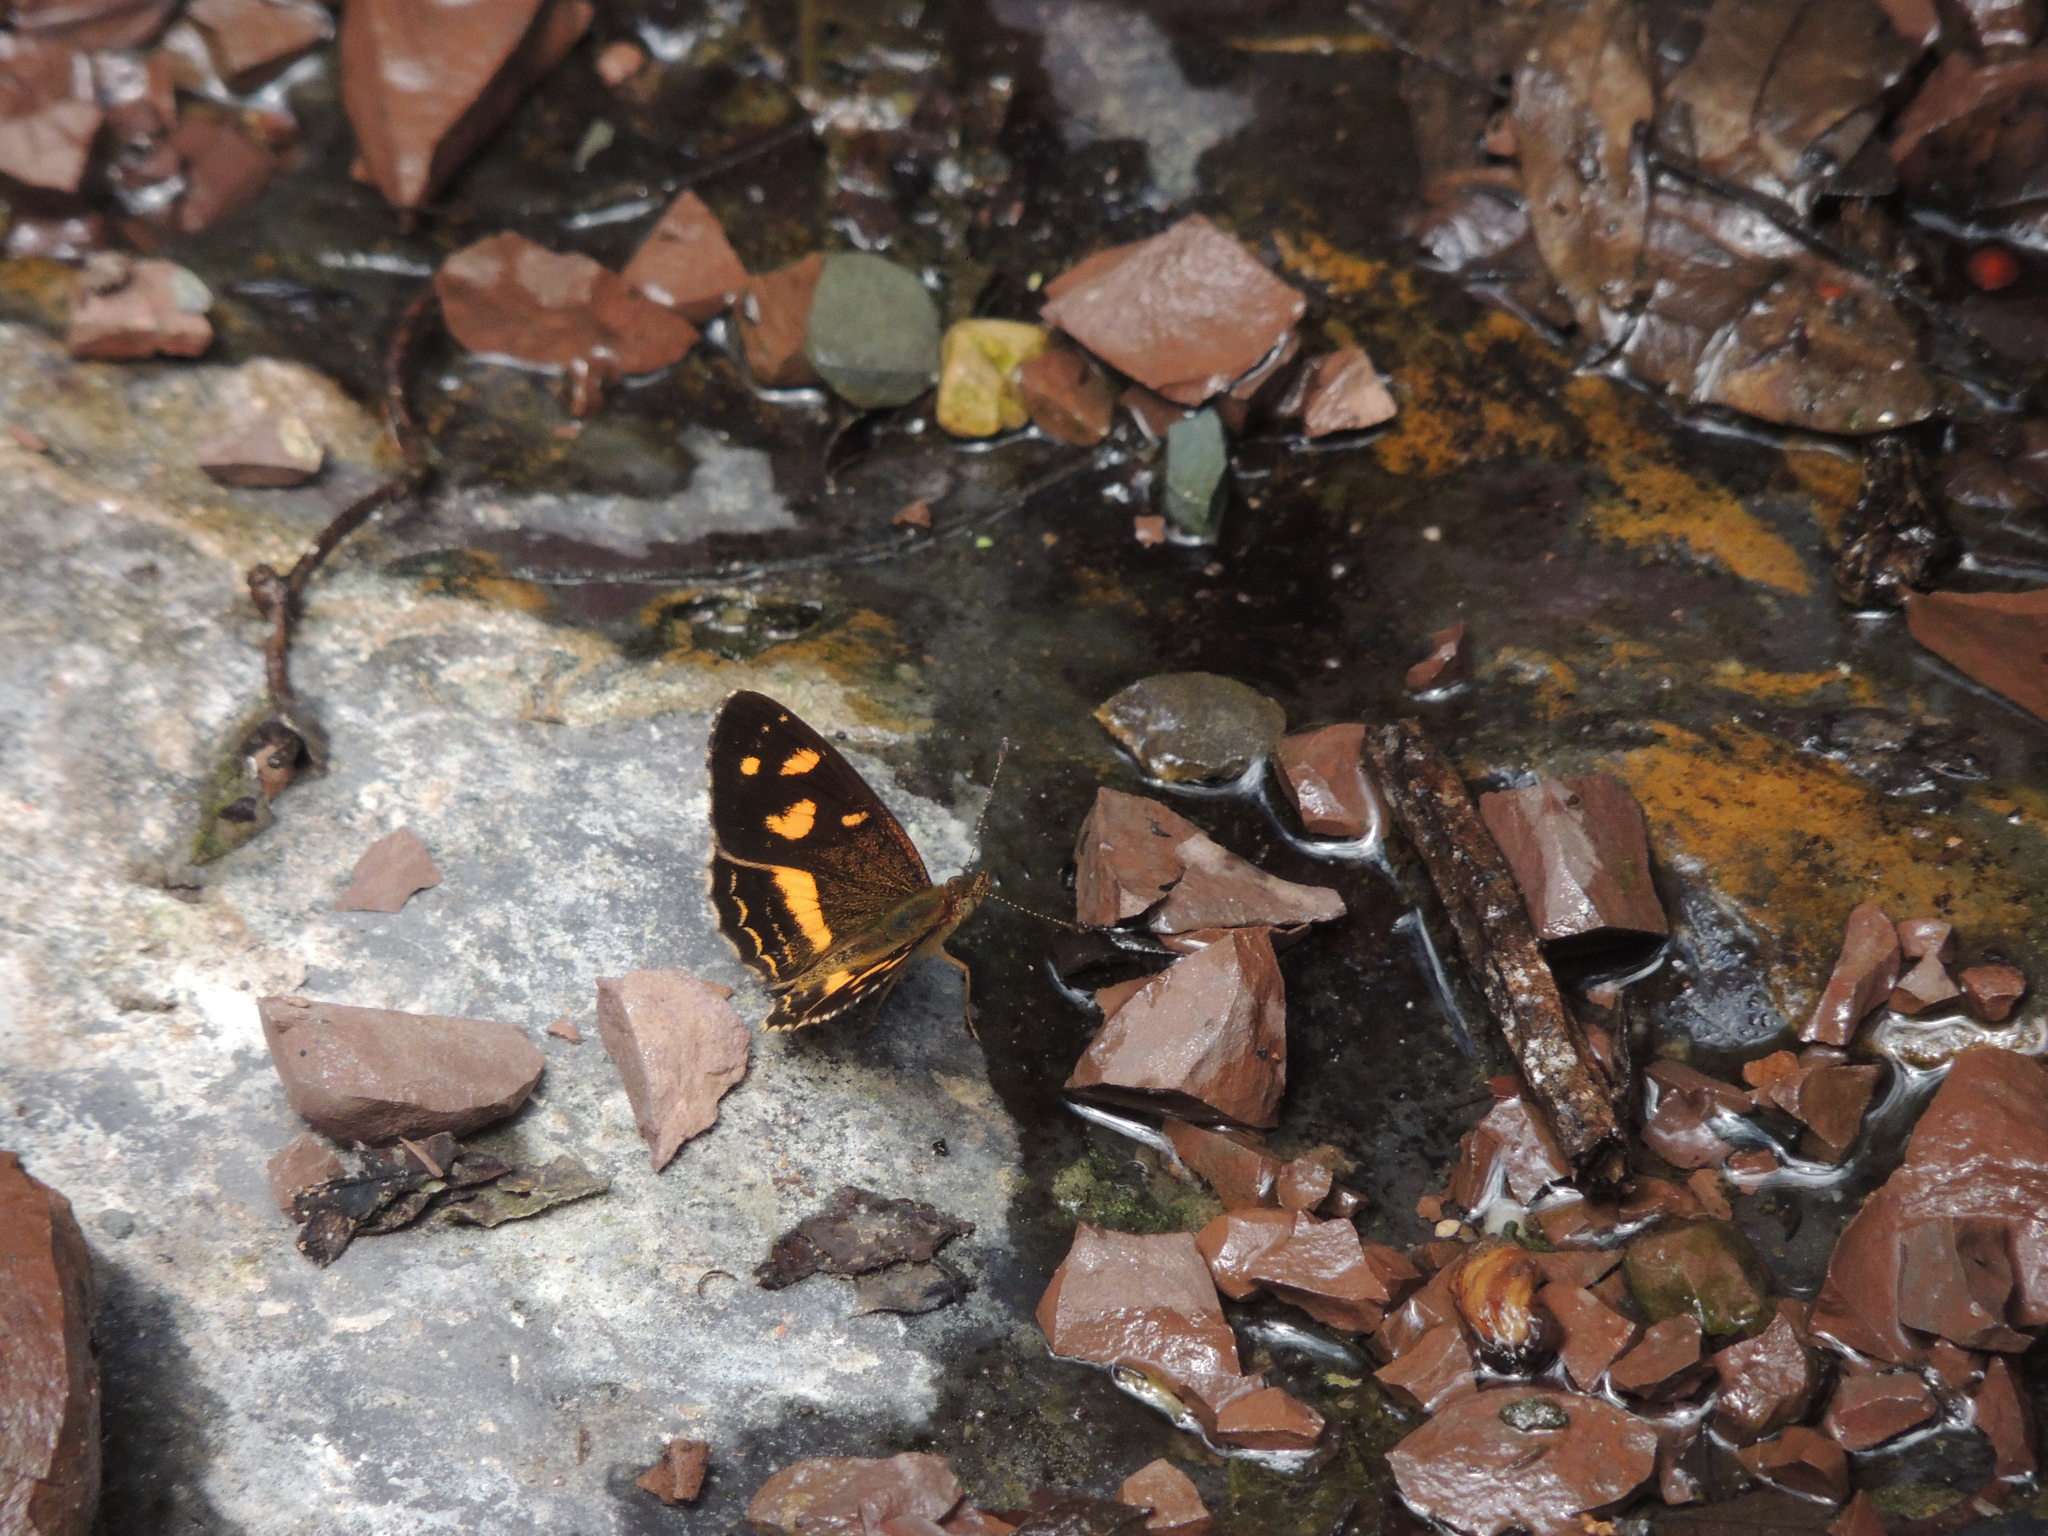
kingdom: Animalia
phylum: Arthropoda
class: Insecta
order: Lepidoptera
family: Nymphalidae
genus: Telenassa
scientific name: Telenassa berenice
